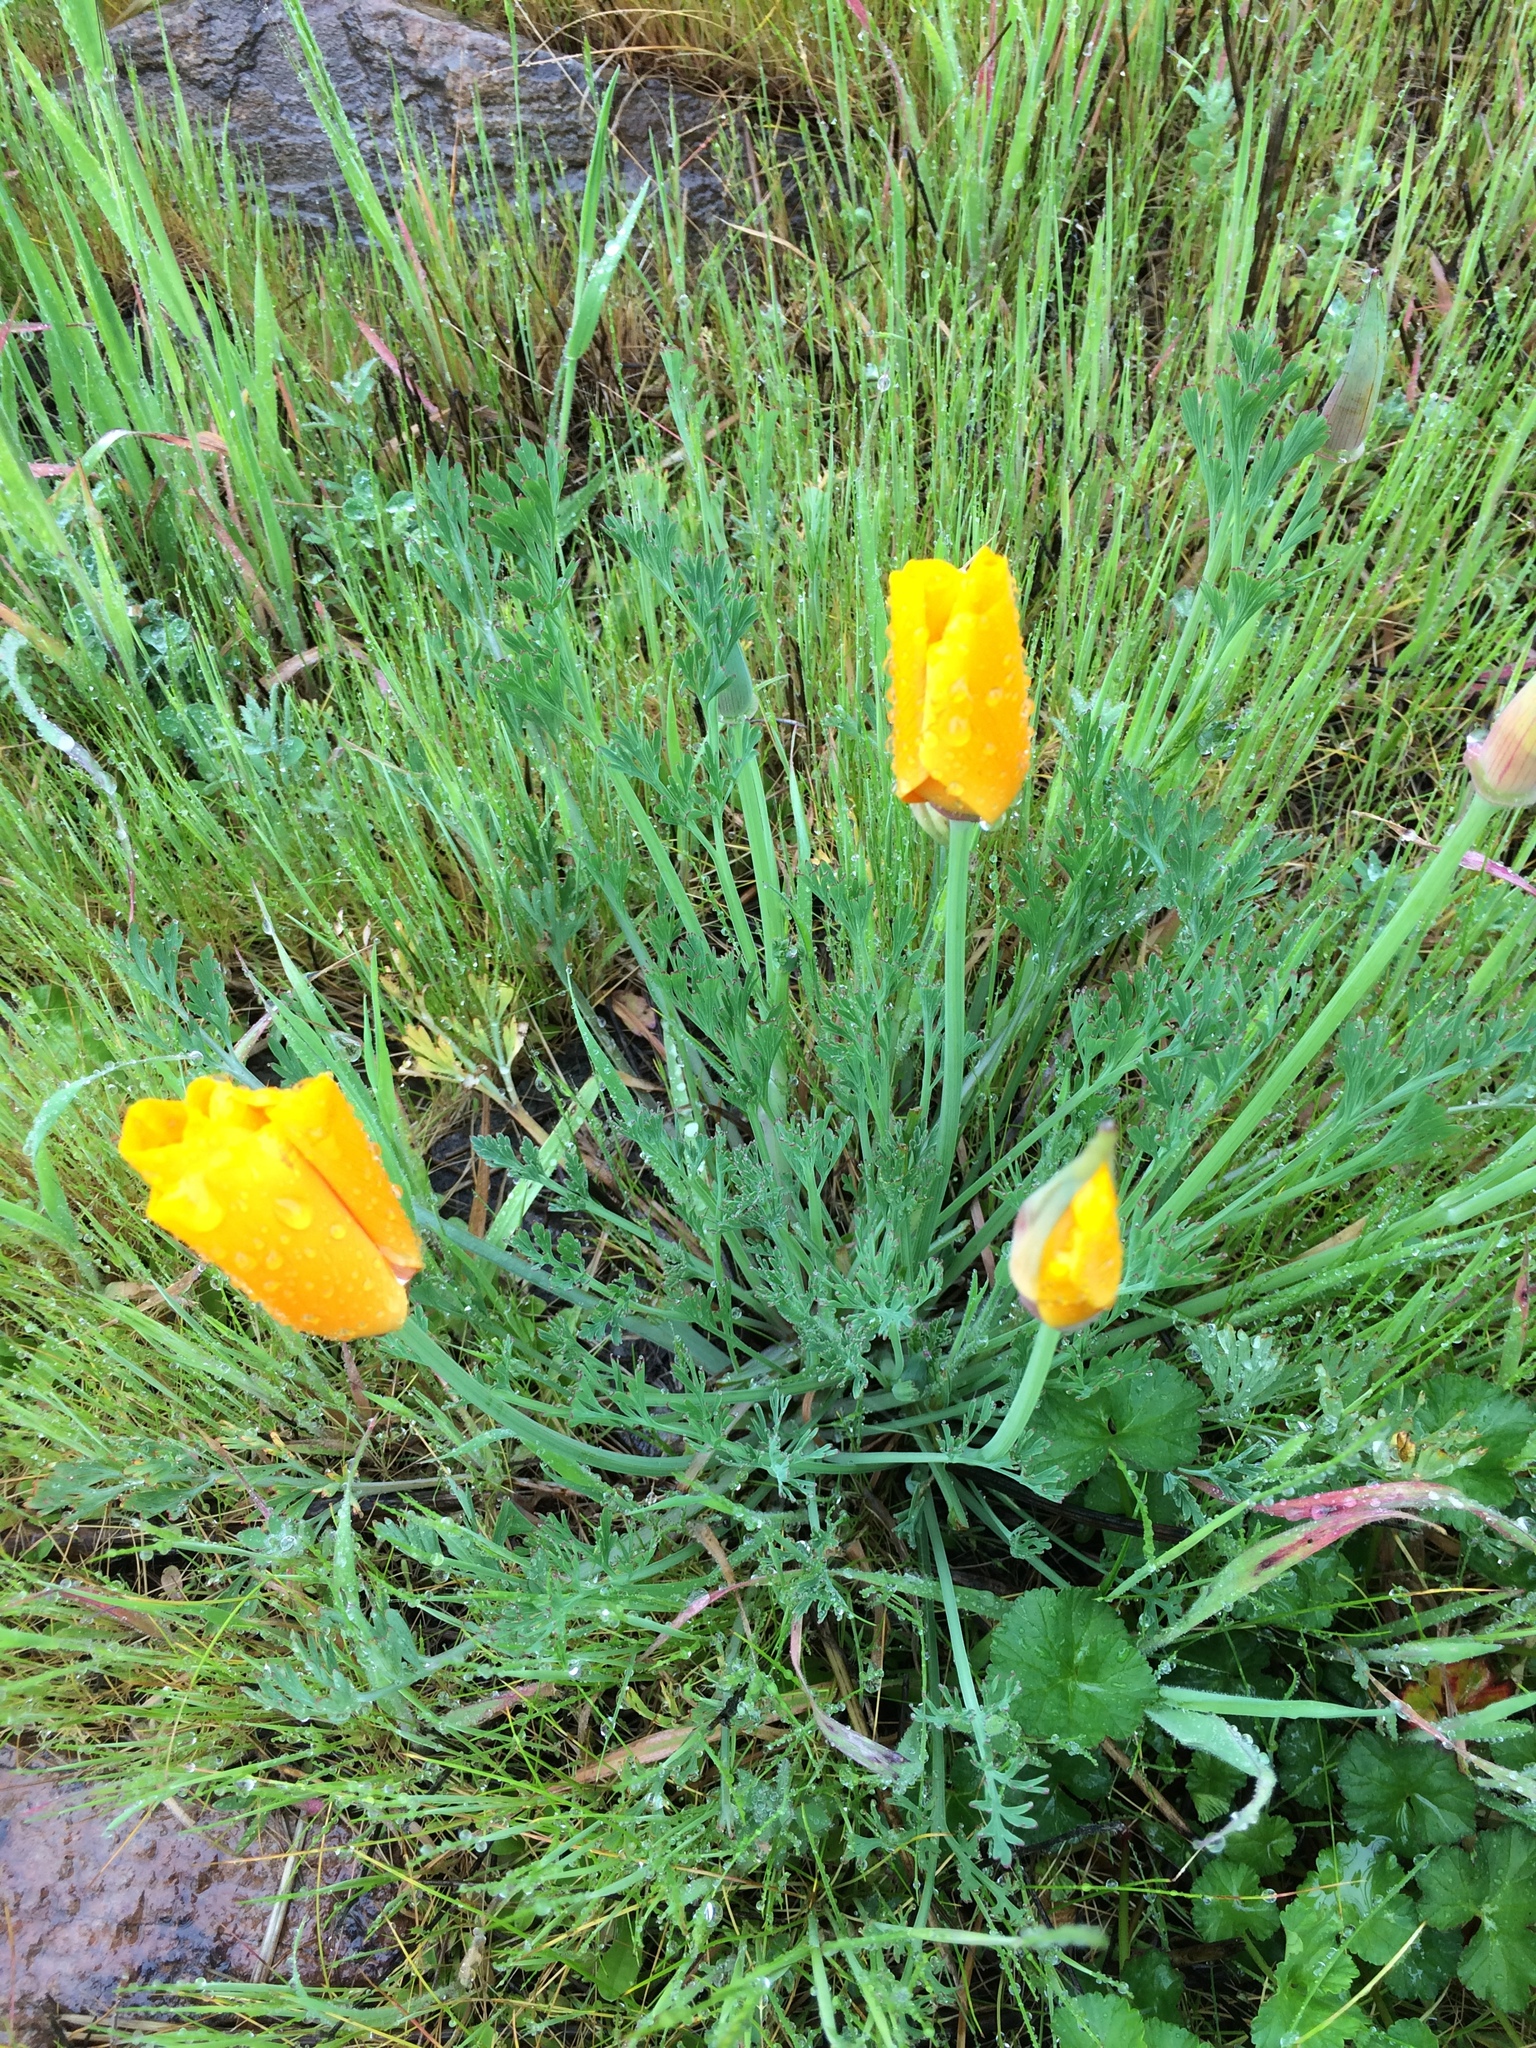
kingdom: Plantae
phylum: Tracheophyta
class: Magnoliopsida
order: Ranunculales
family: Papaveraceae
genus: Eschscholzia
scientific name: Eschscholzia californica
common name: California poppy
